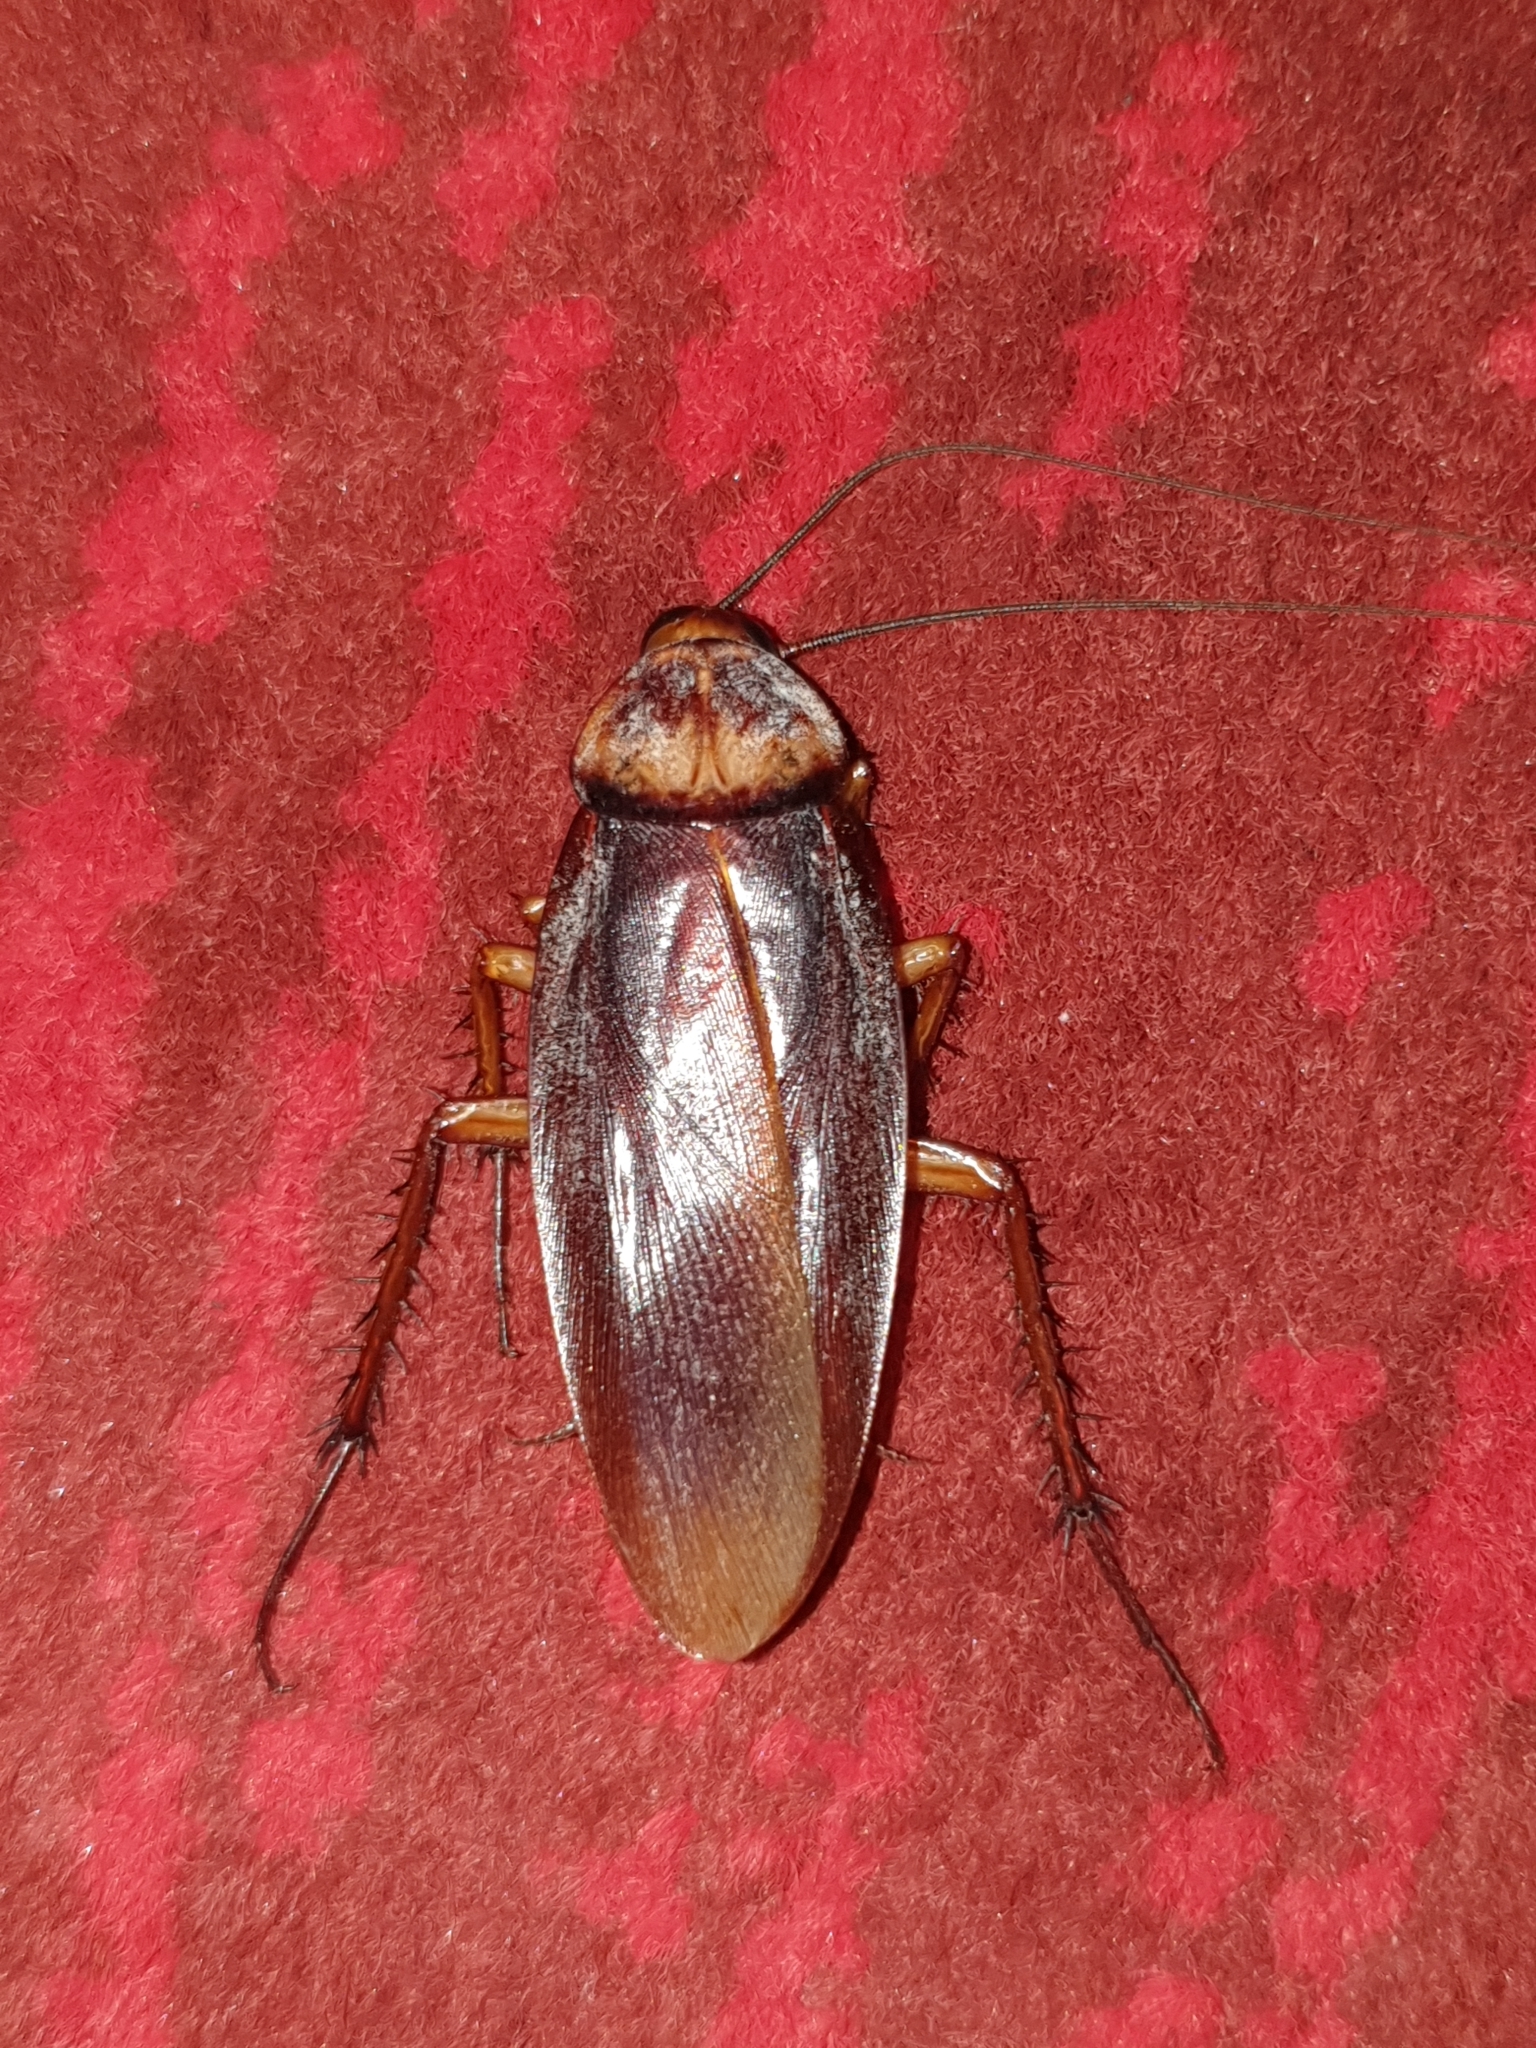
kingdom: Animalia
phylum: Arthropoda
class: Insecta
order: Blattodea
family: Blattidae
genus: Periplaneta
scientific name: Periplaneta americana
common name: American cockroach
